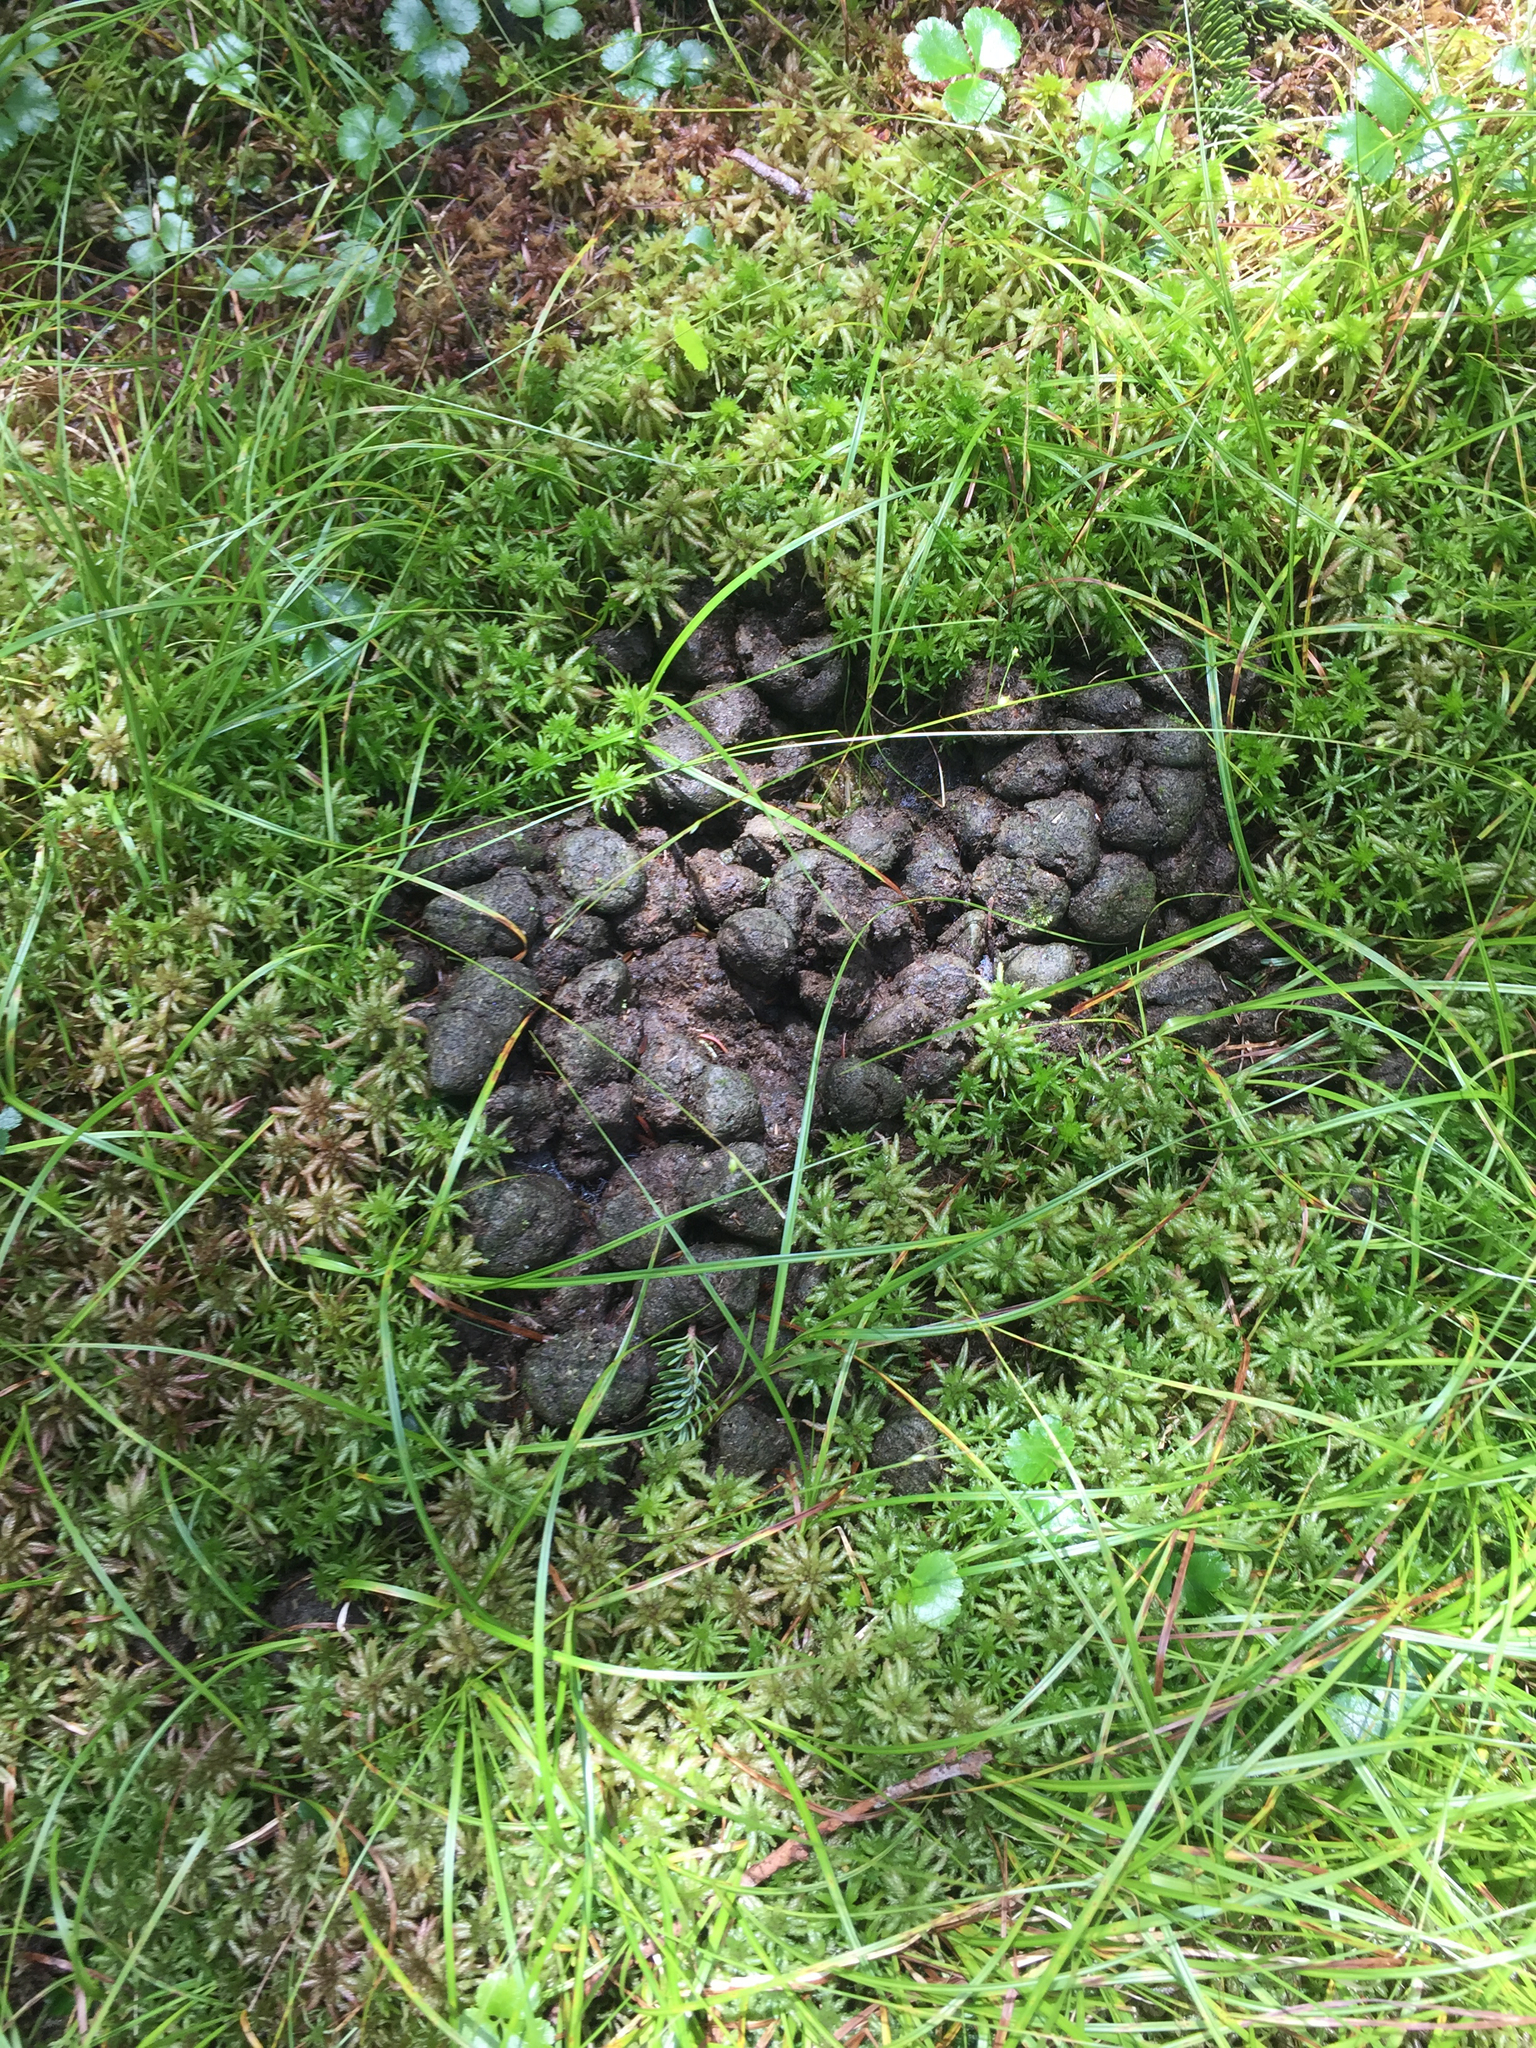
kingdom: Animalia
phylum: Chordata
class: Mammalia
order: Artiodactyla
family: Cervidae
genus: Alces
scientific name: Alces alces
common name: Moose
